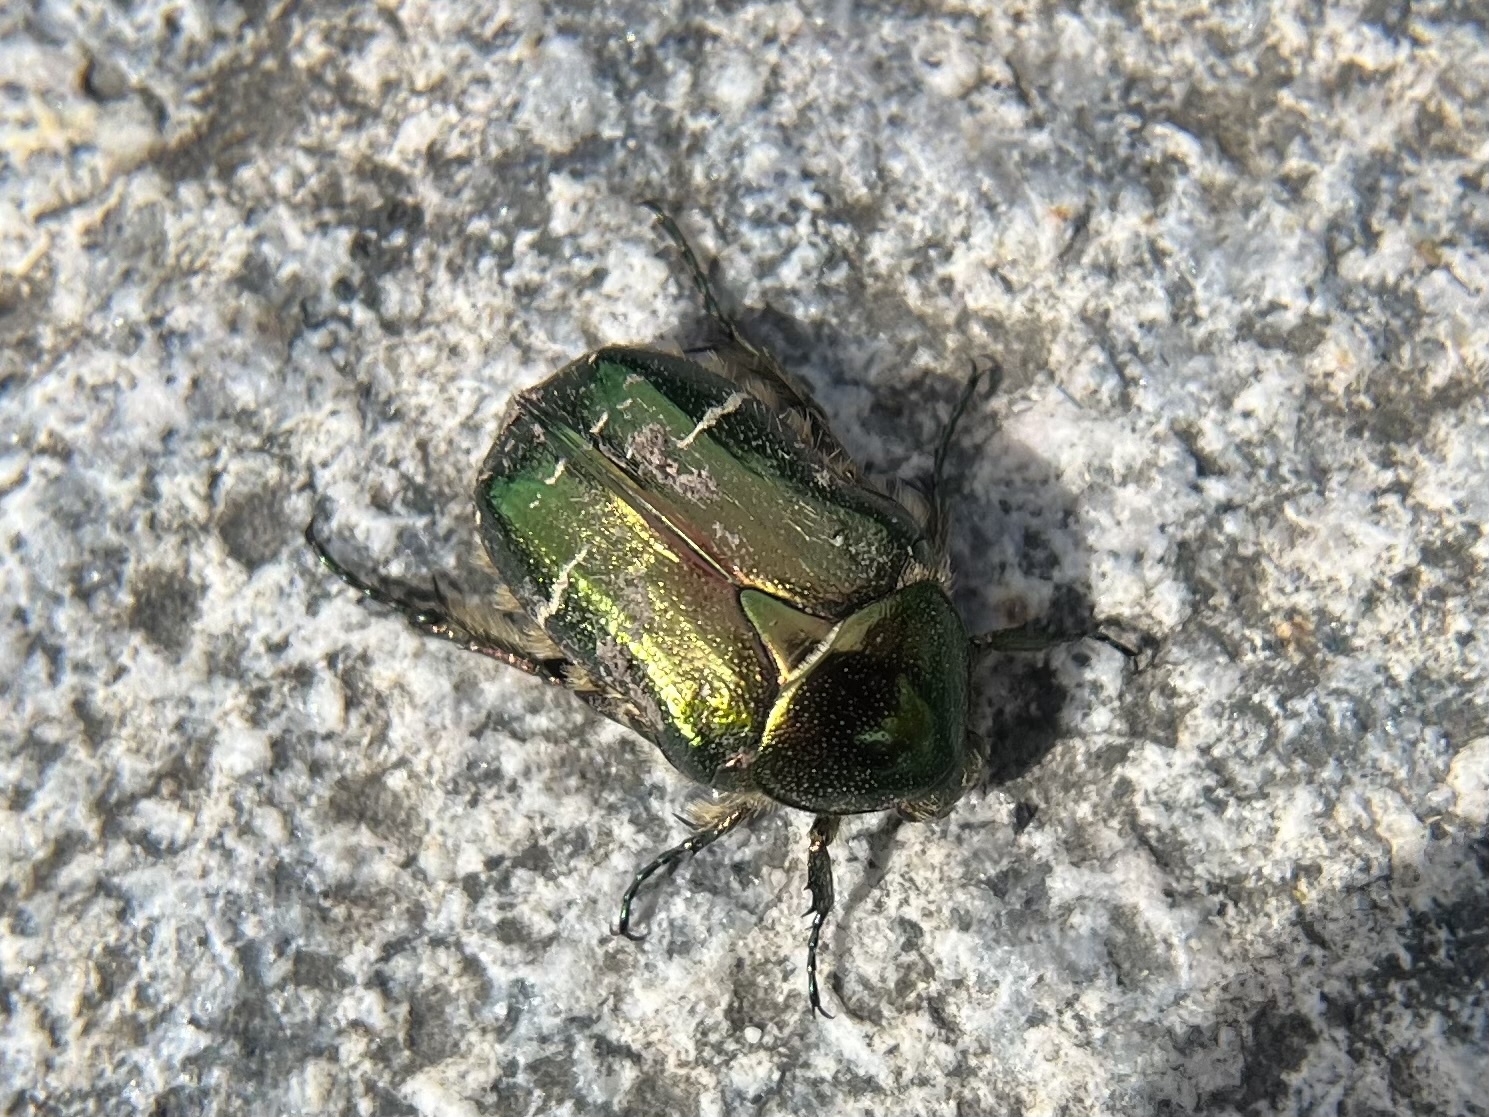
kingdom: Animalia
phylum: Arthropoda
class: Insecta
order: Coleoptera
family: Scarabaeidae
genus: Cetonia
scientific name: Cetonia aurata
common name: Rose chafer
